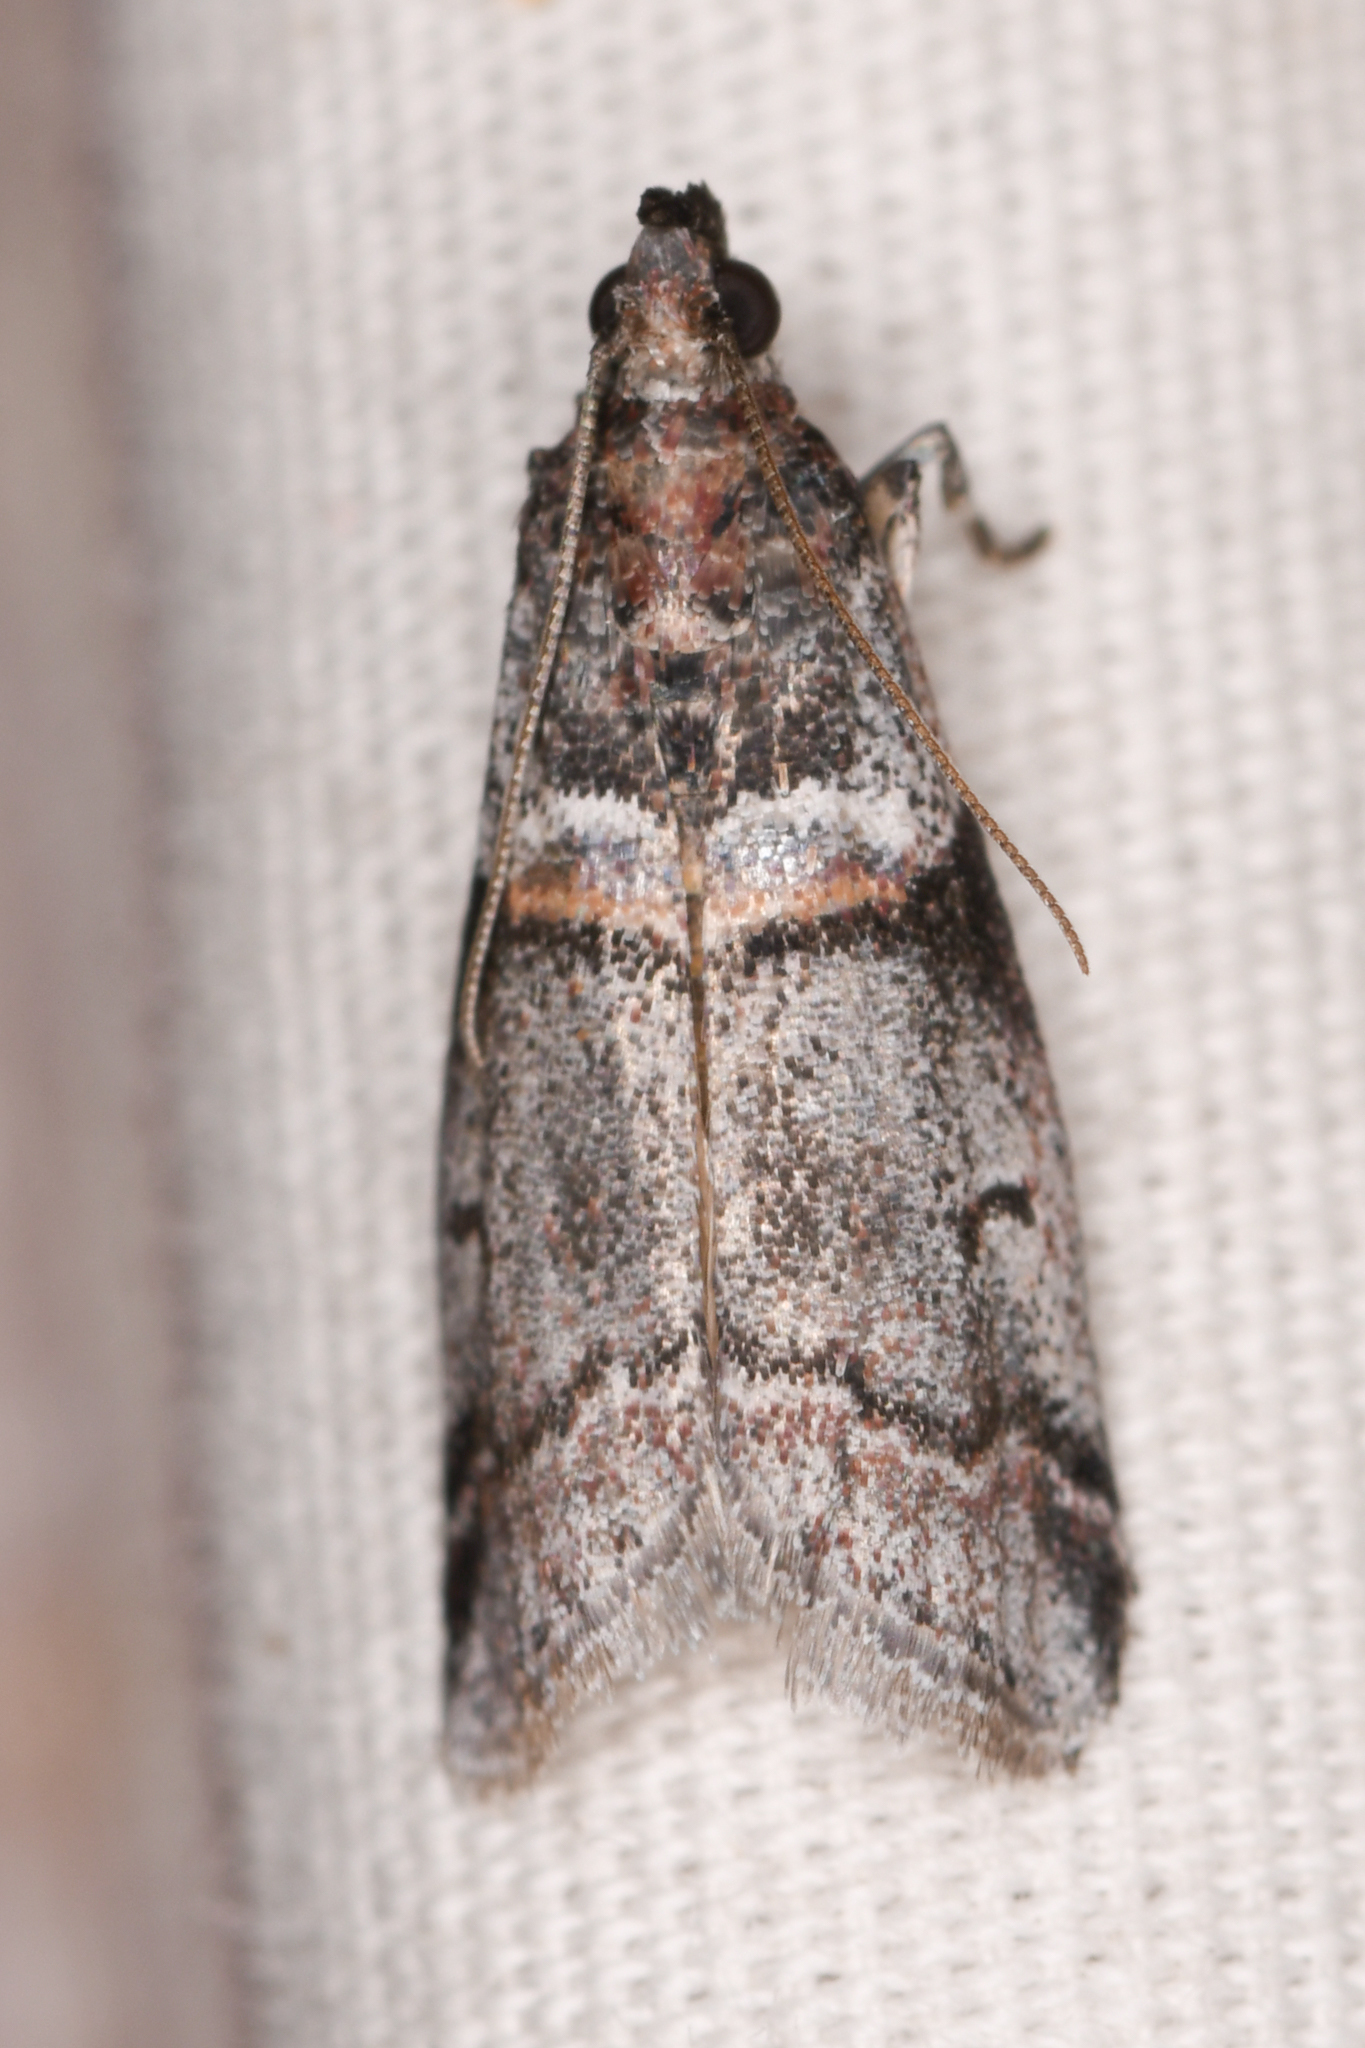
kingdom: Animalia
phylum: Arthropoda
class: Insecta
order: Lepidoptera
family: Pyralidae
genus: Acrobasis
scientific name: Acrobasis tricolorella
